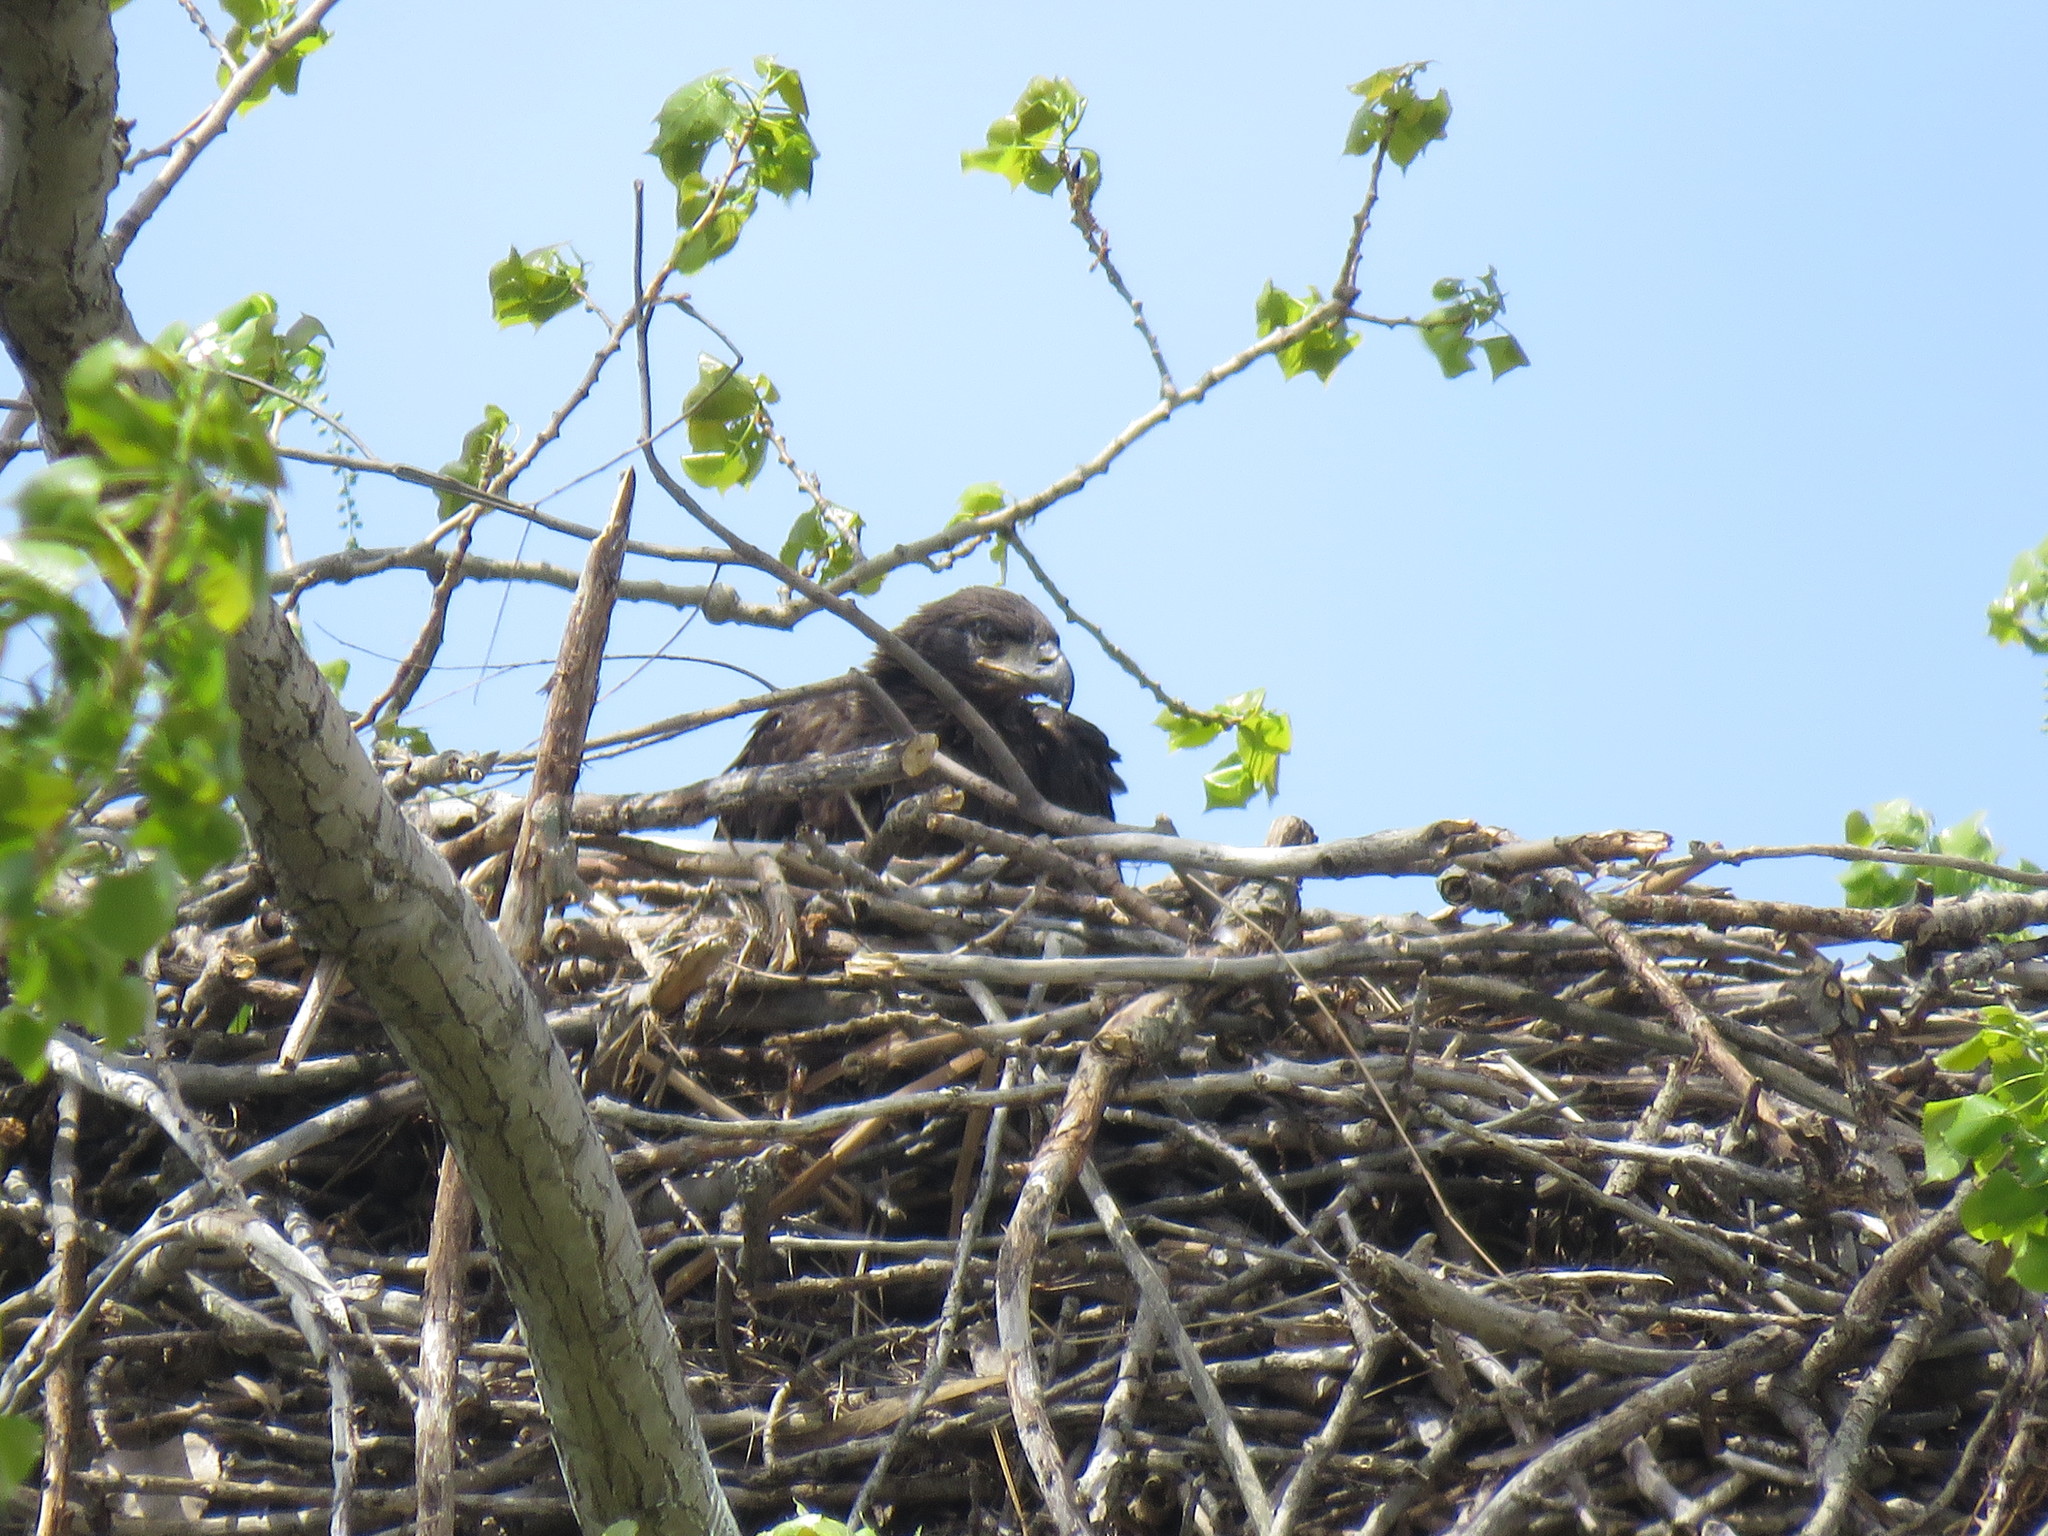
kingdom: Animalia
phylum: Chordata
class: Aves
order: Accipitriformes
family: Accipitridae
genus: Haliaeetus
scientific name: Haliaeetus leucocephalus
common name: Bald eagle
